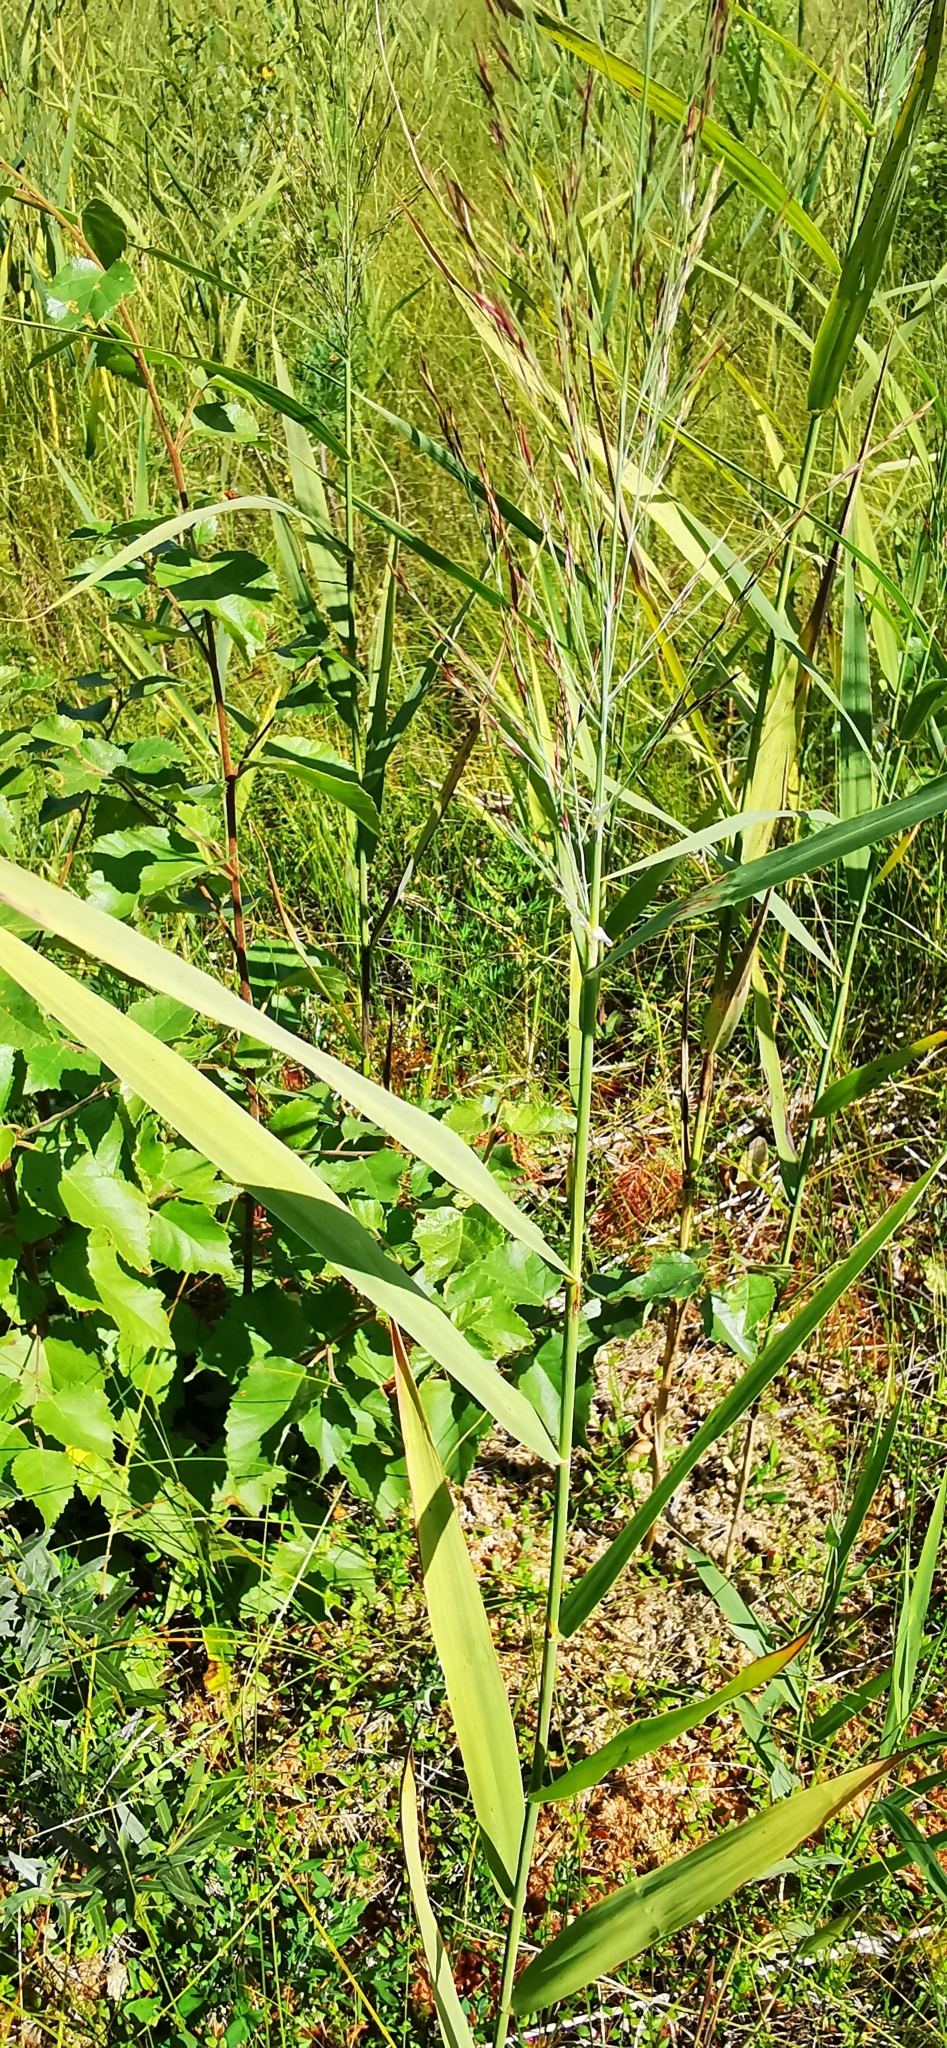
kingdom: Plantae
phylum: Tracheophyta
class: Liliopsida
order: Poales
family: Poaceae
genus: Phragmites
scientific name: Phragmites australis
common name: Common reed
